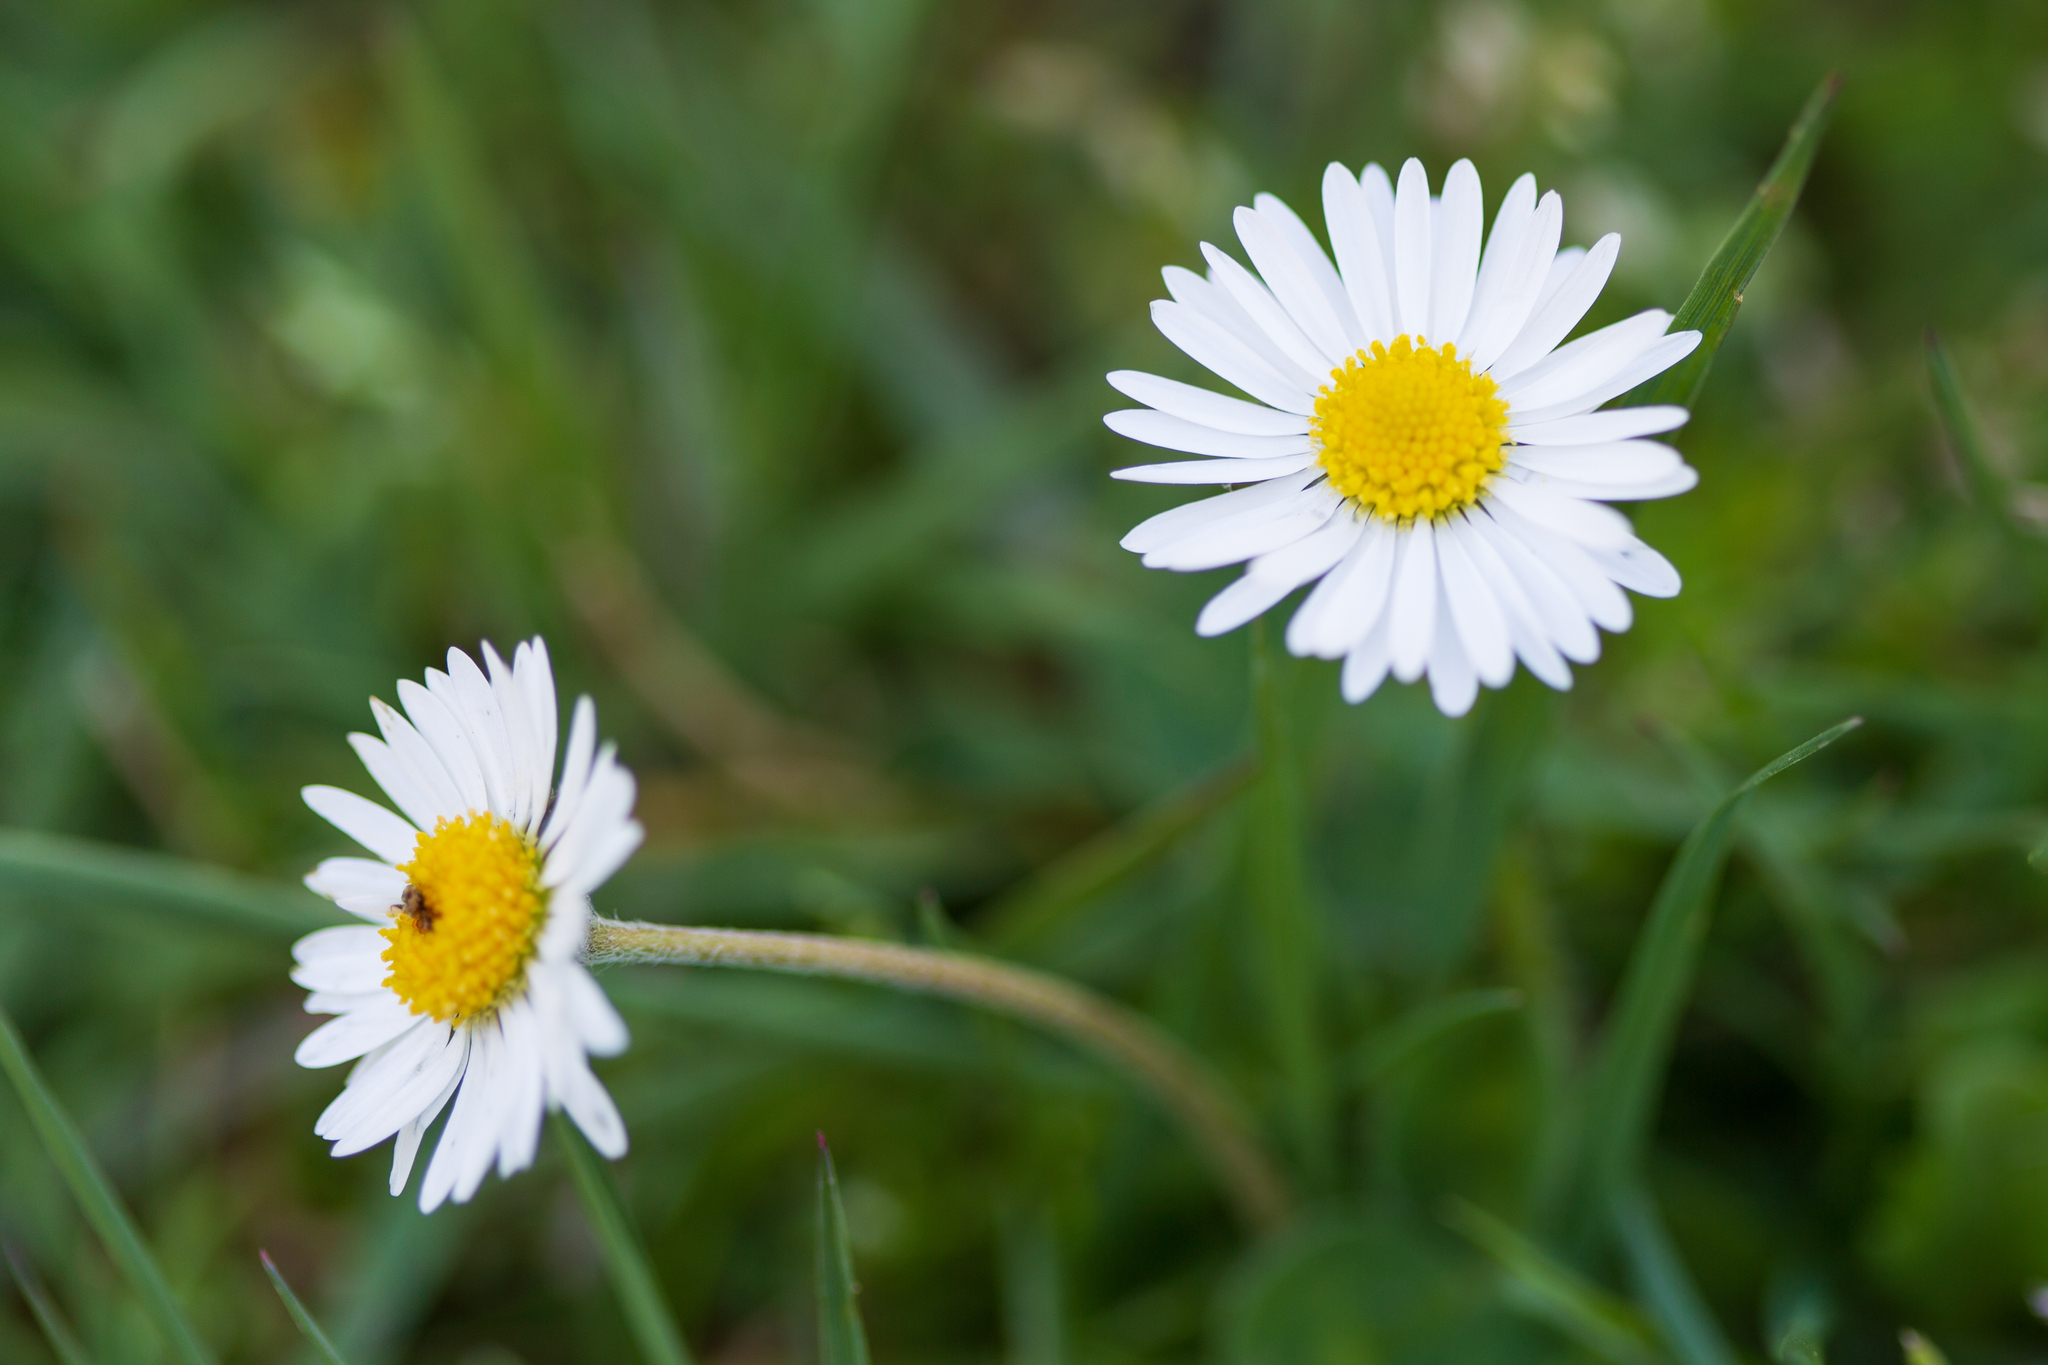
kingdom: Plantae
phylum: Tracheophyta
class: Magnoliopsida
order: Asterales
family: Asteraceae
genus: Bellis
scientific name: Bellis perennis
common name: Lawndaisy
